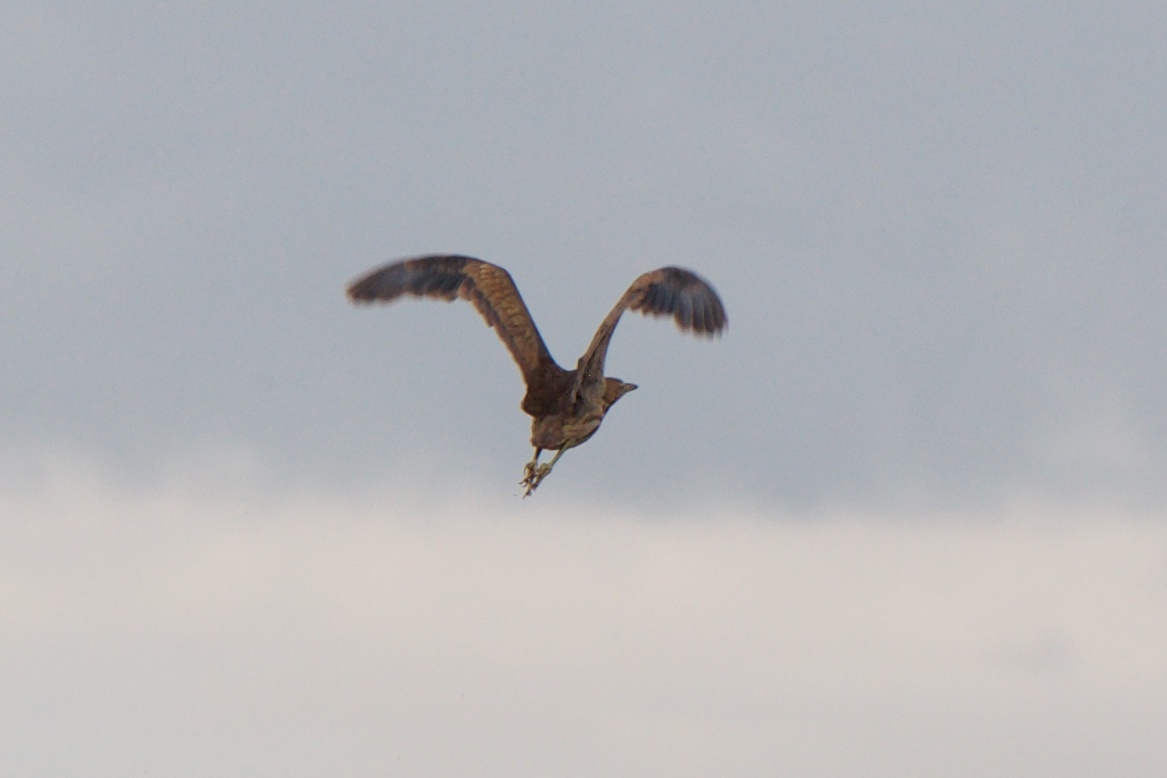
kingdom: Animalia
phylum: Chordata
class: Aves
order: Pelecaniformes
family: Ardeidae
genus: Botaurus
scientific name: Botaurus lentiginosus
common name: American bittern
